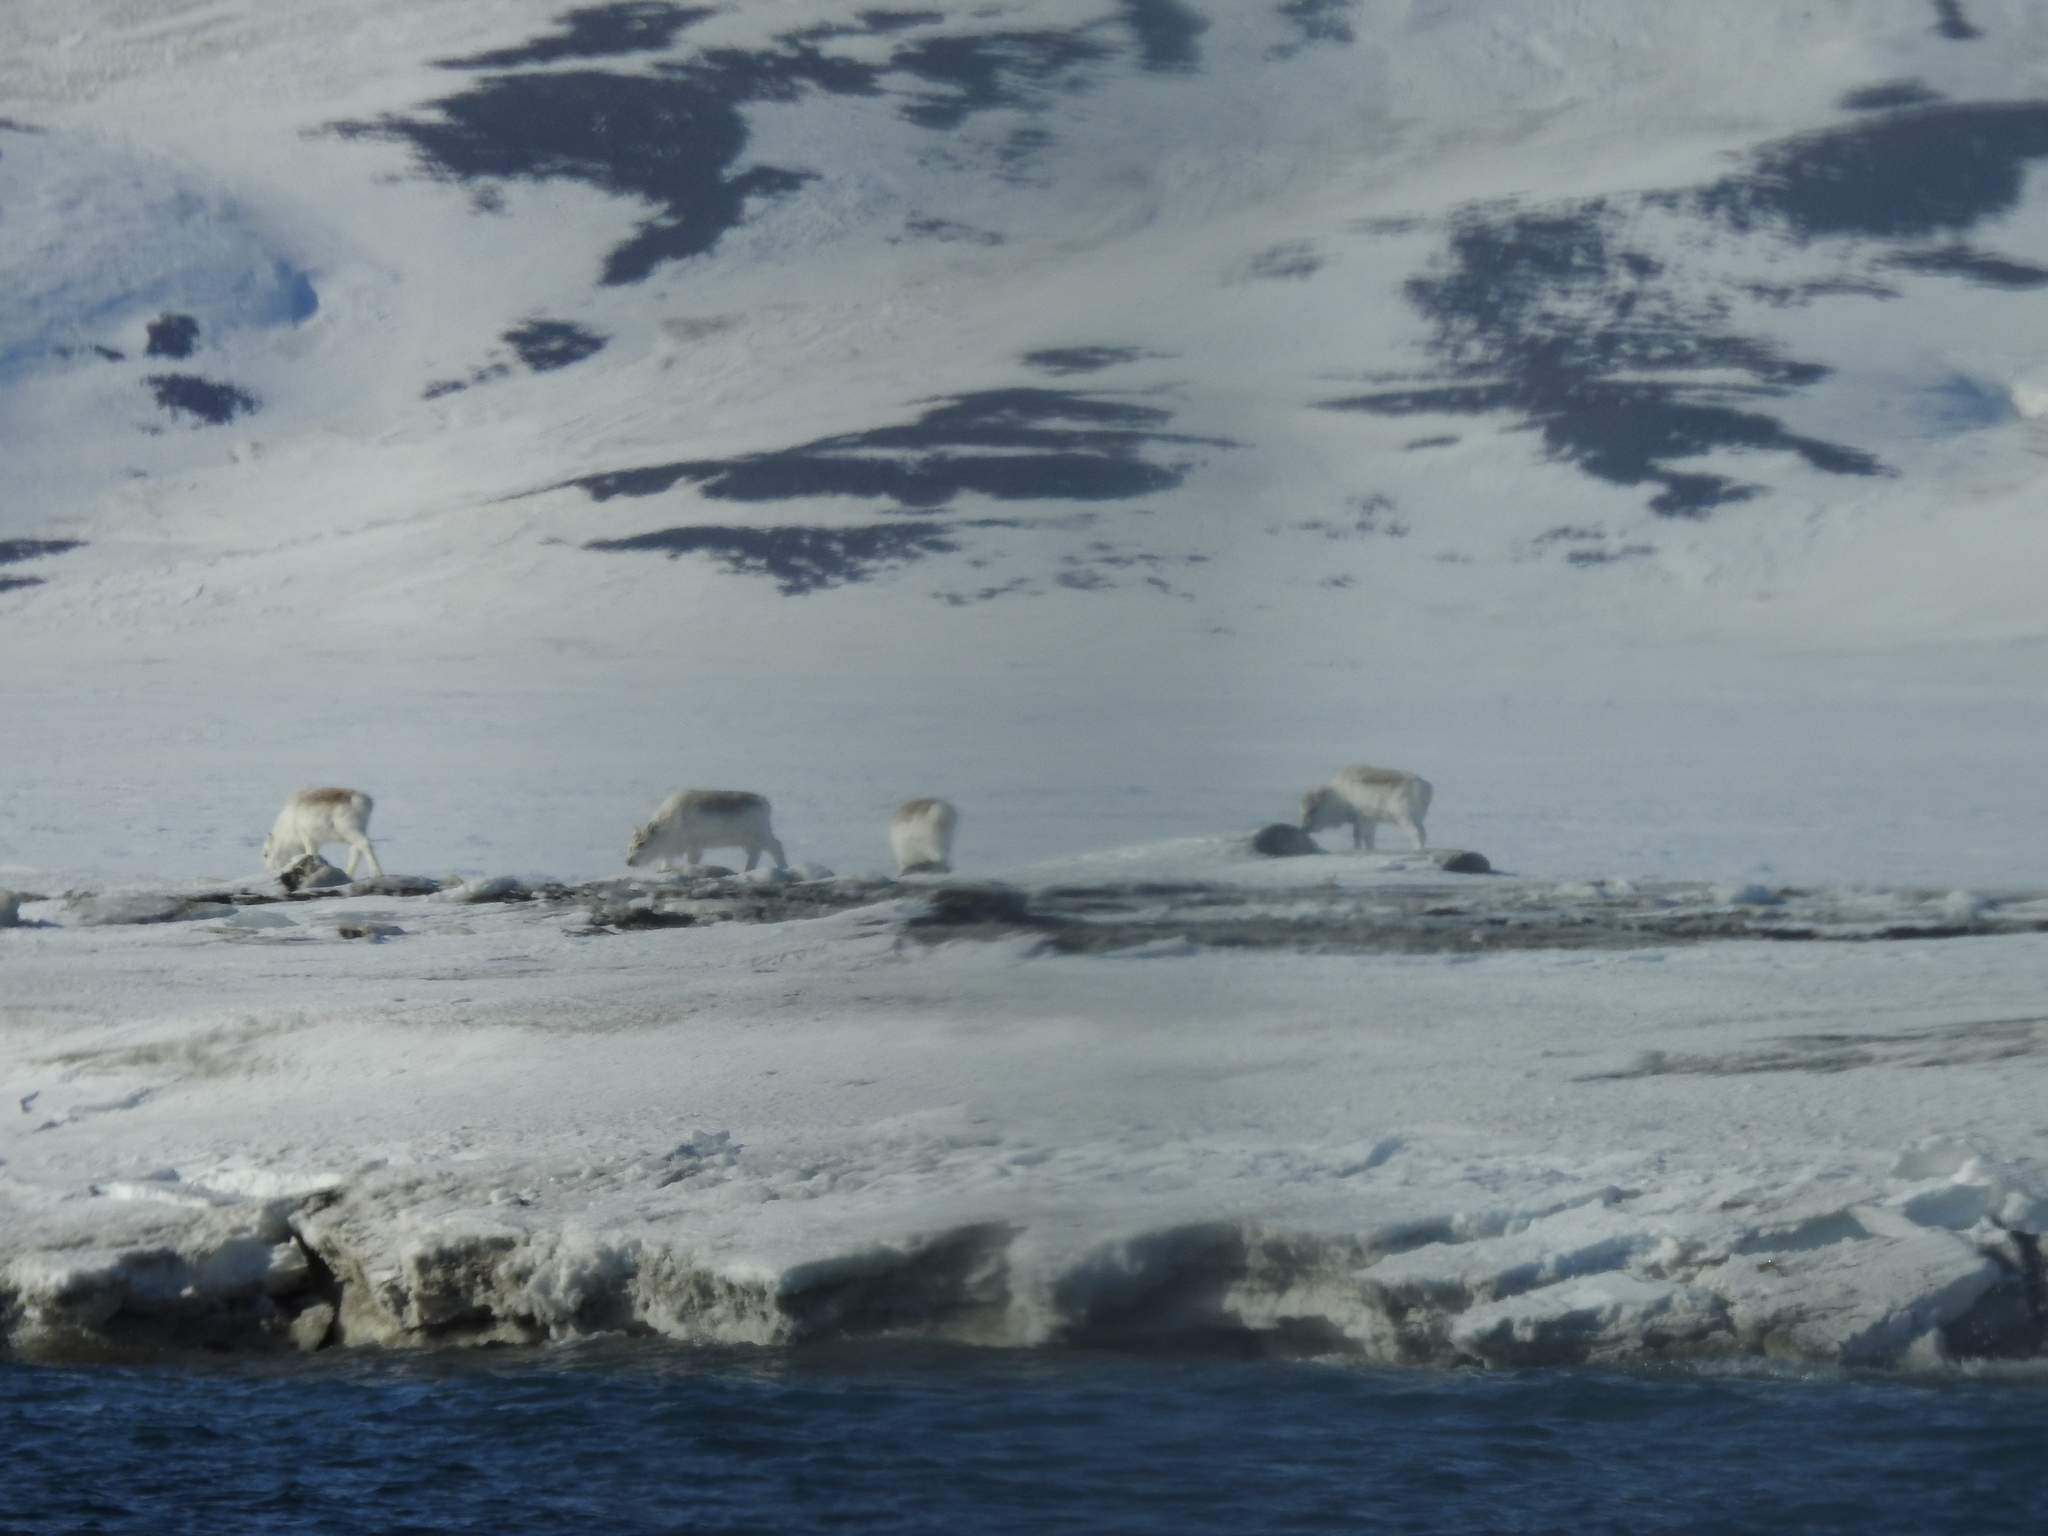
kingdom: Animalia
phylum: Chordata
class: Mammalia
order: Artiodactyla
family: Cervidae
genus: Rangifer
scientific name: Rangifer tarandus
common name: Reindeer
